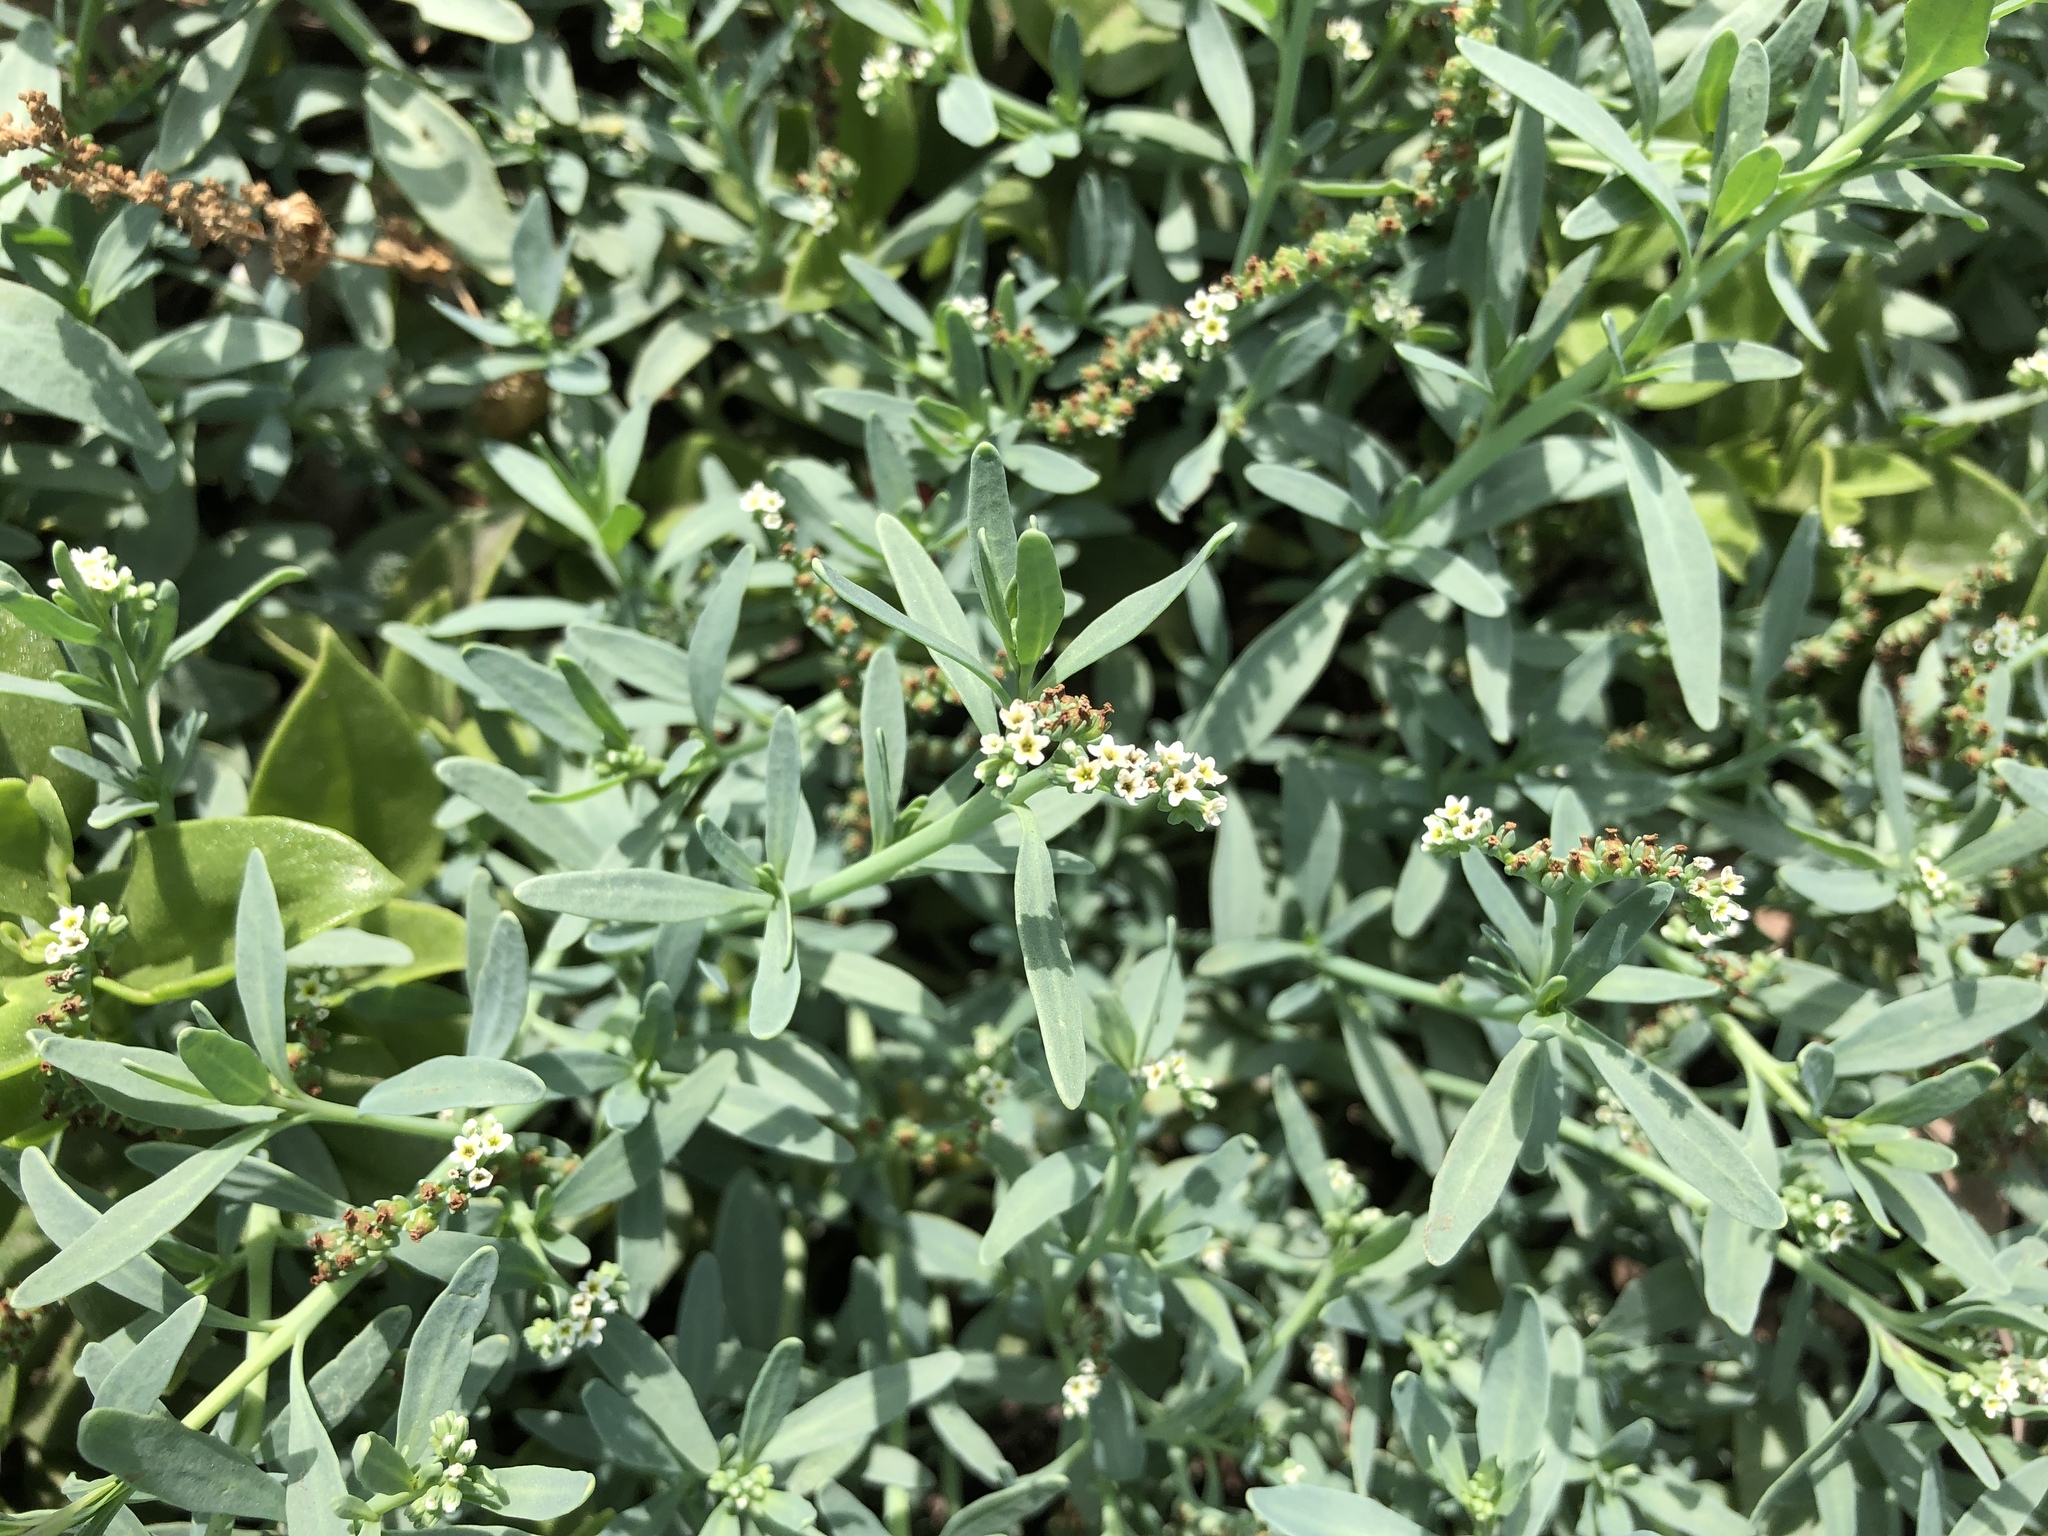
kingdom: Plantae
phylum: Tracheophyta
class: Magnoliopsida
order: Boraginales
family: Heliotropiaceae
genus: Heliotropium
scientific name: Heliotropium curassavicum
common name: Seaside heliotrope
